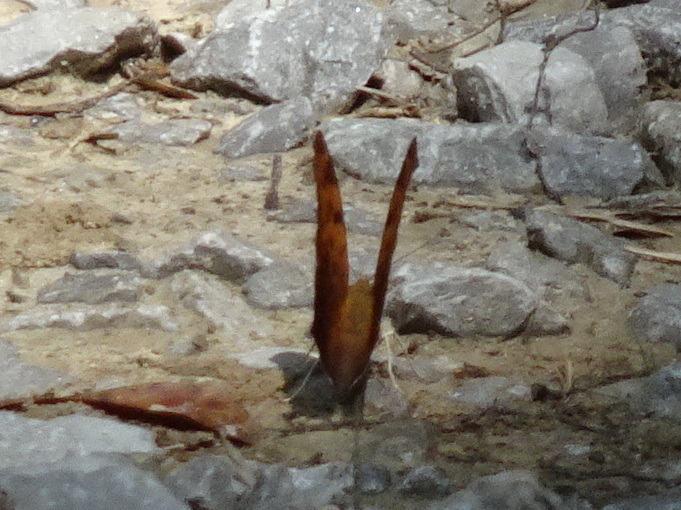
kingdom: Animalia
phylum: Arthropoda
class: Insecta
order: Lepidoptera
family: Nymphalidae
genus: Polygonia
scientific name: Polygonia interrogationis
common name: Question mark
